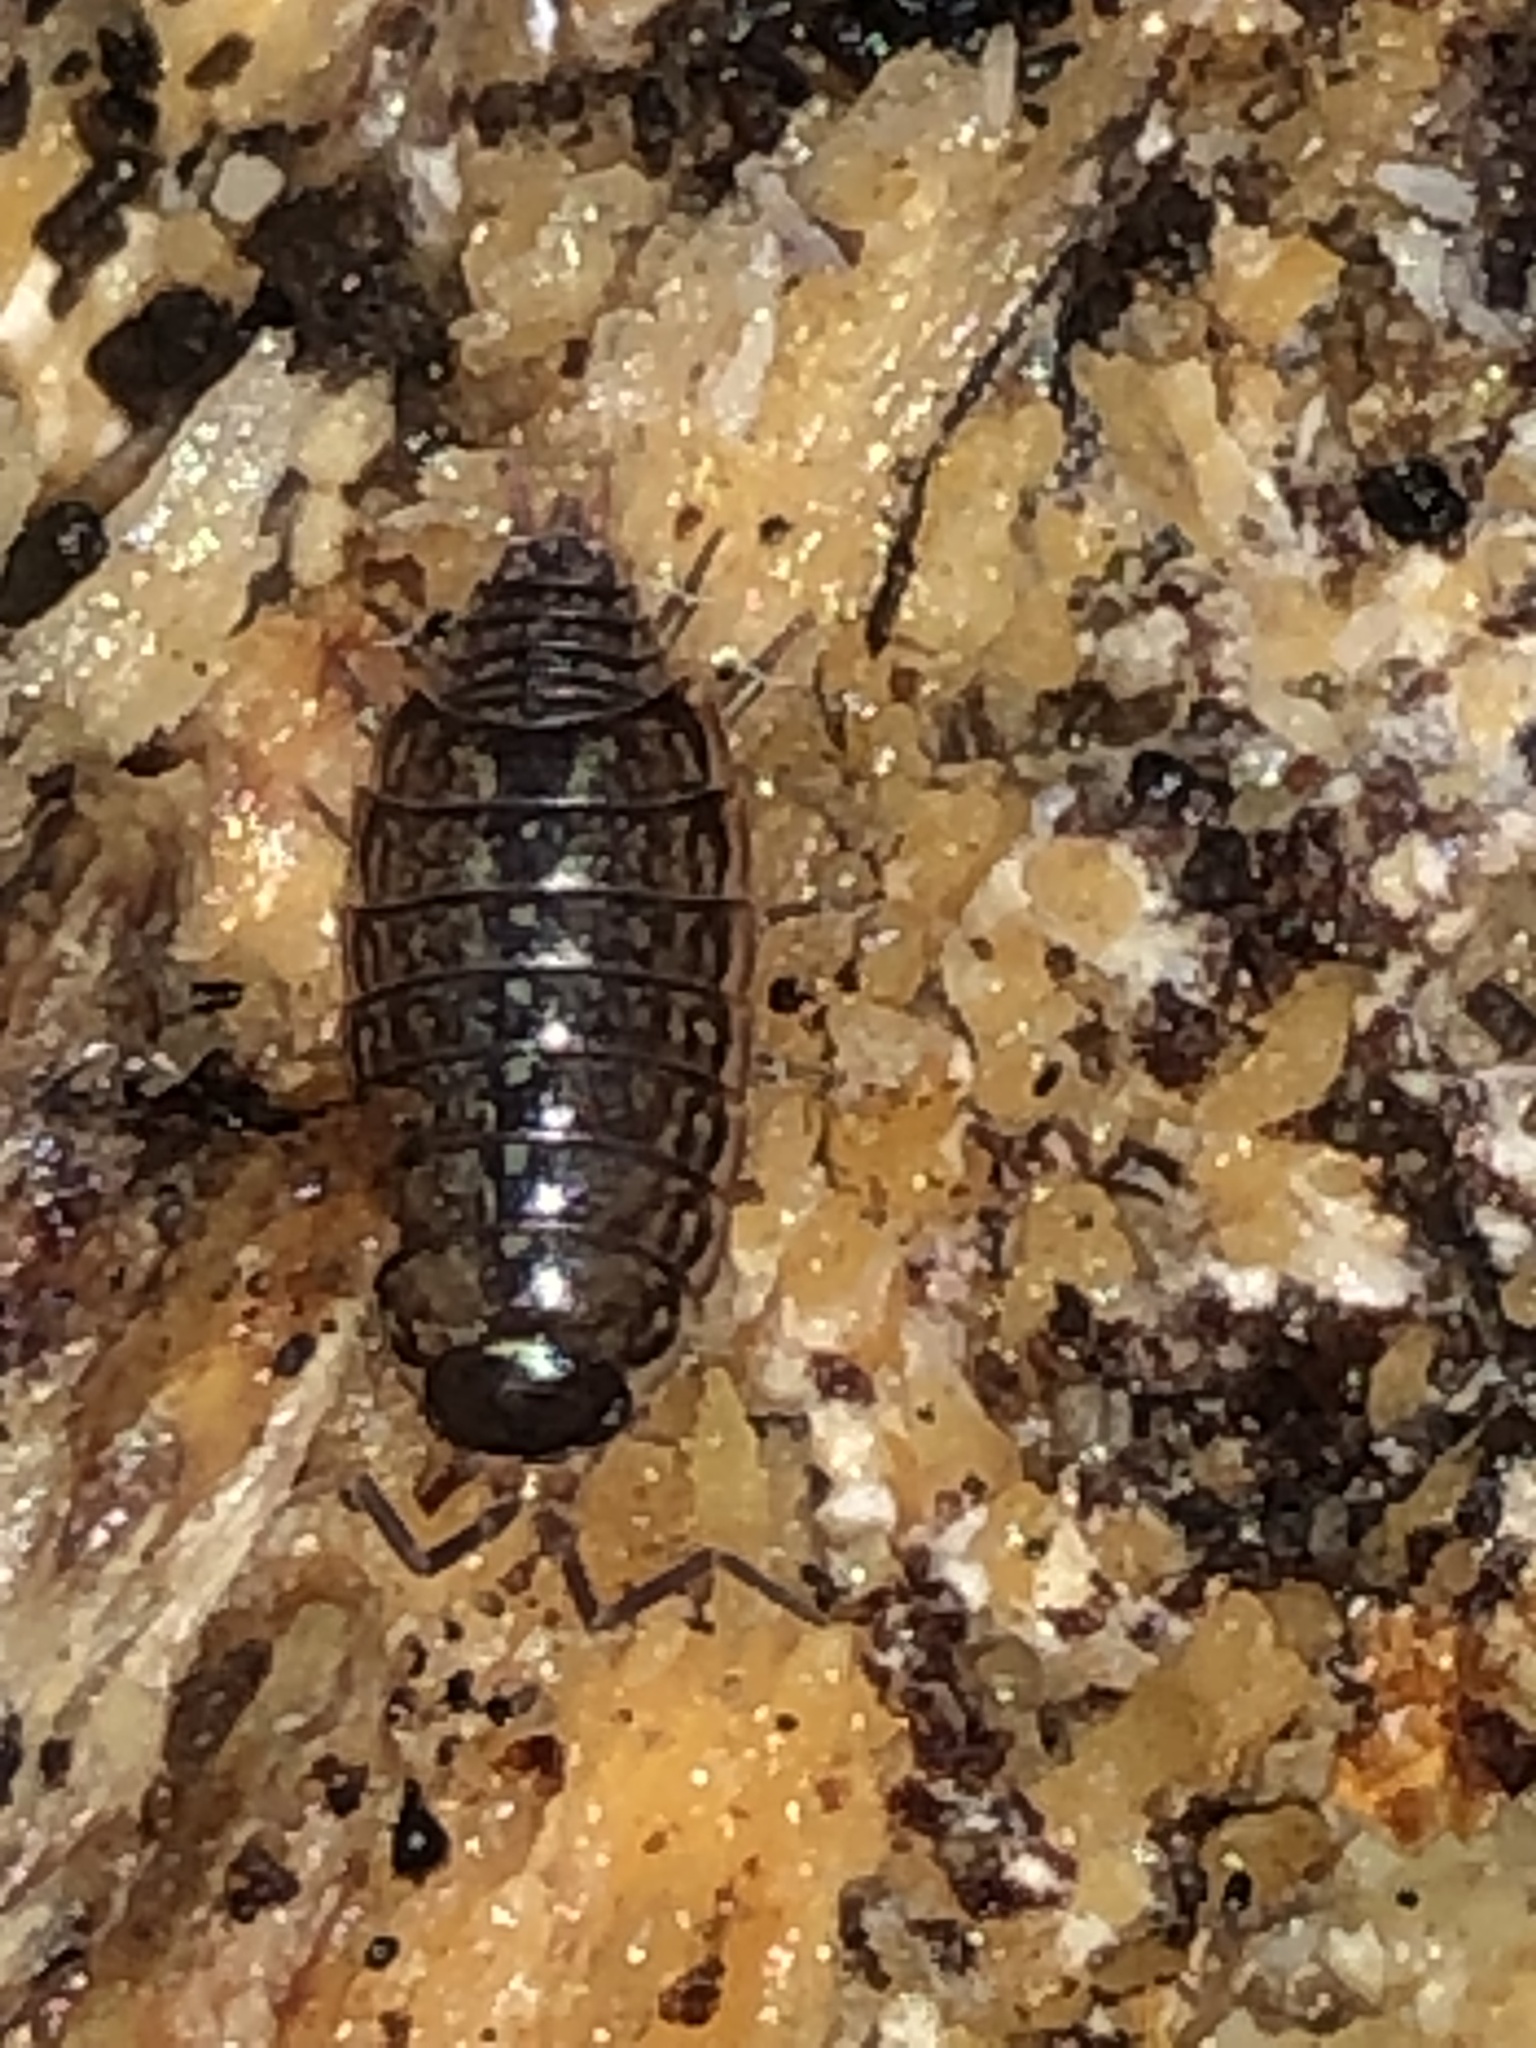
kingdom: Animalia
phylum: Arthropoda
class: Malacostraca
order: Isopoda
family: Philosciidae
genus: Philoscia
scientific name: Philoscia muscorum
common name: Common striped woodlouse
